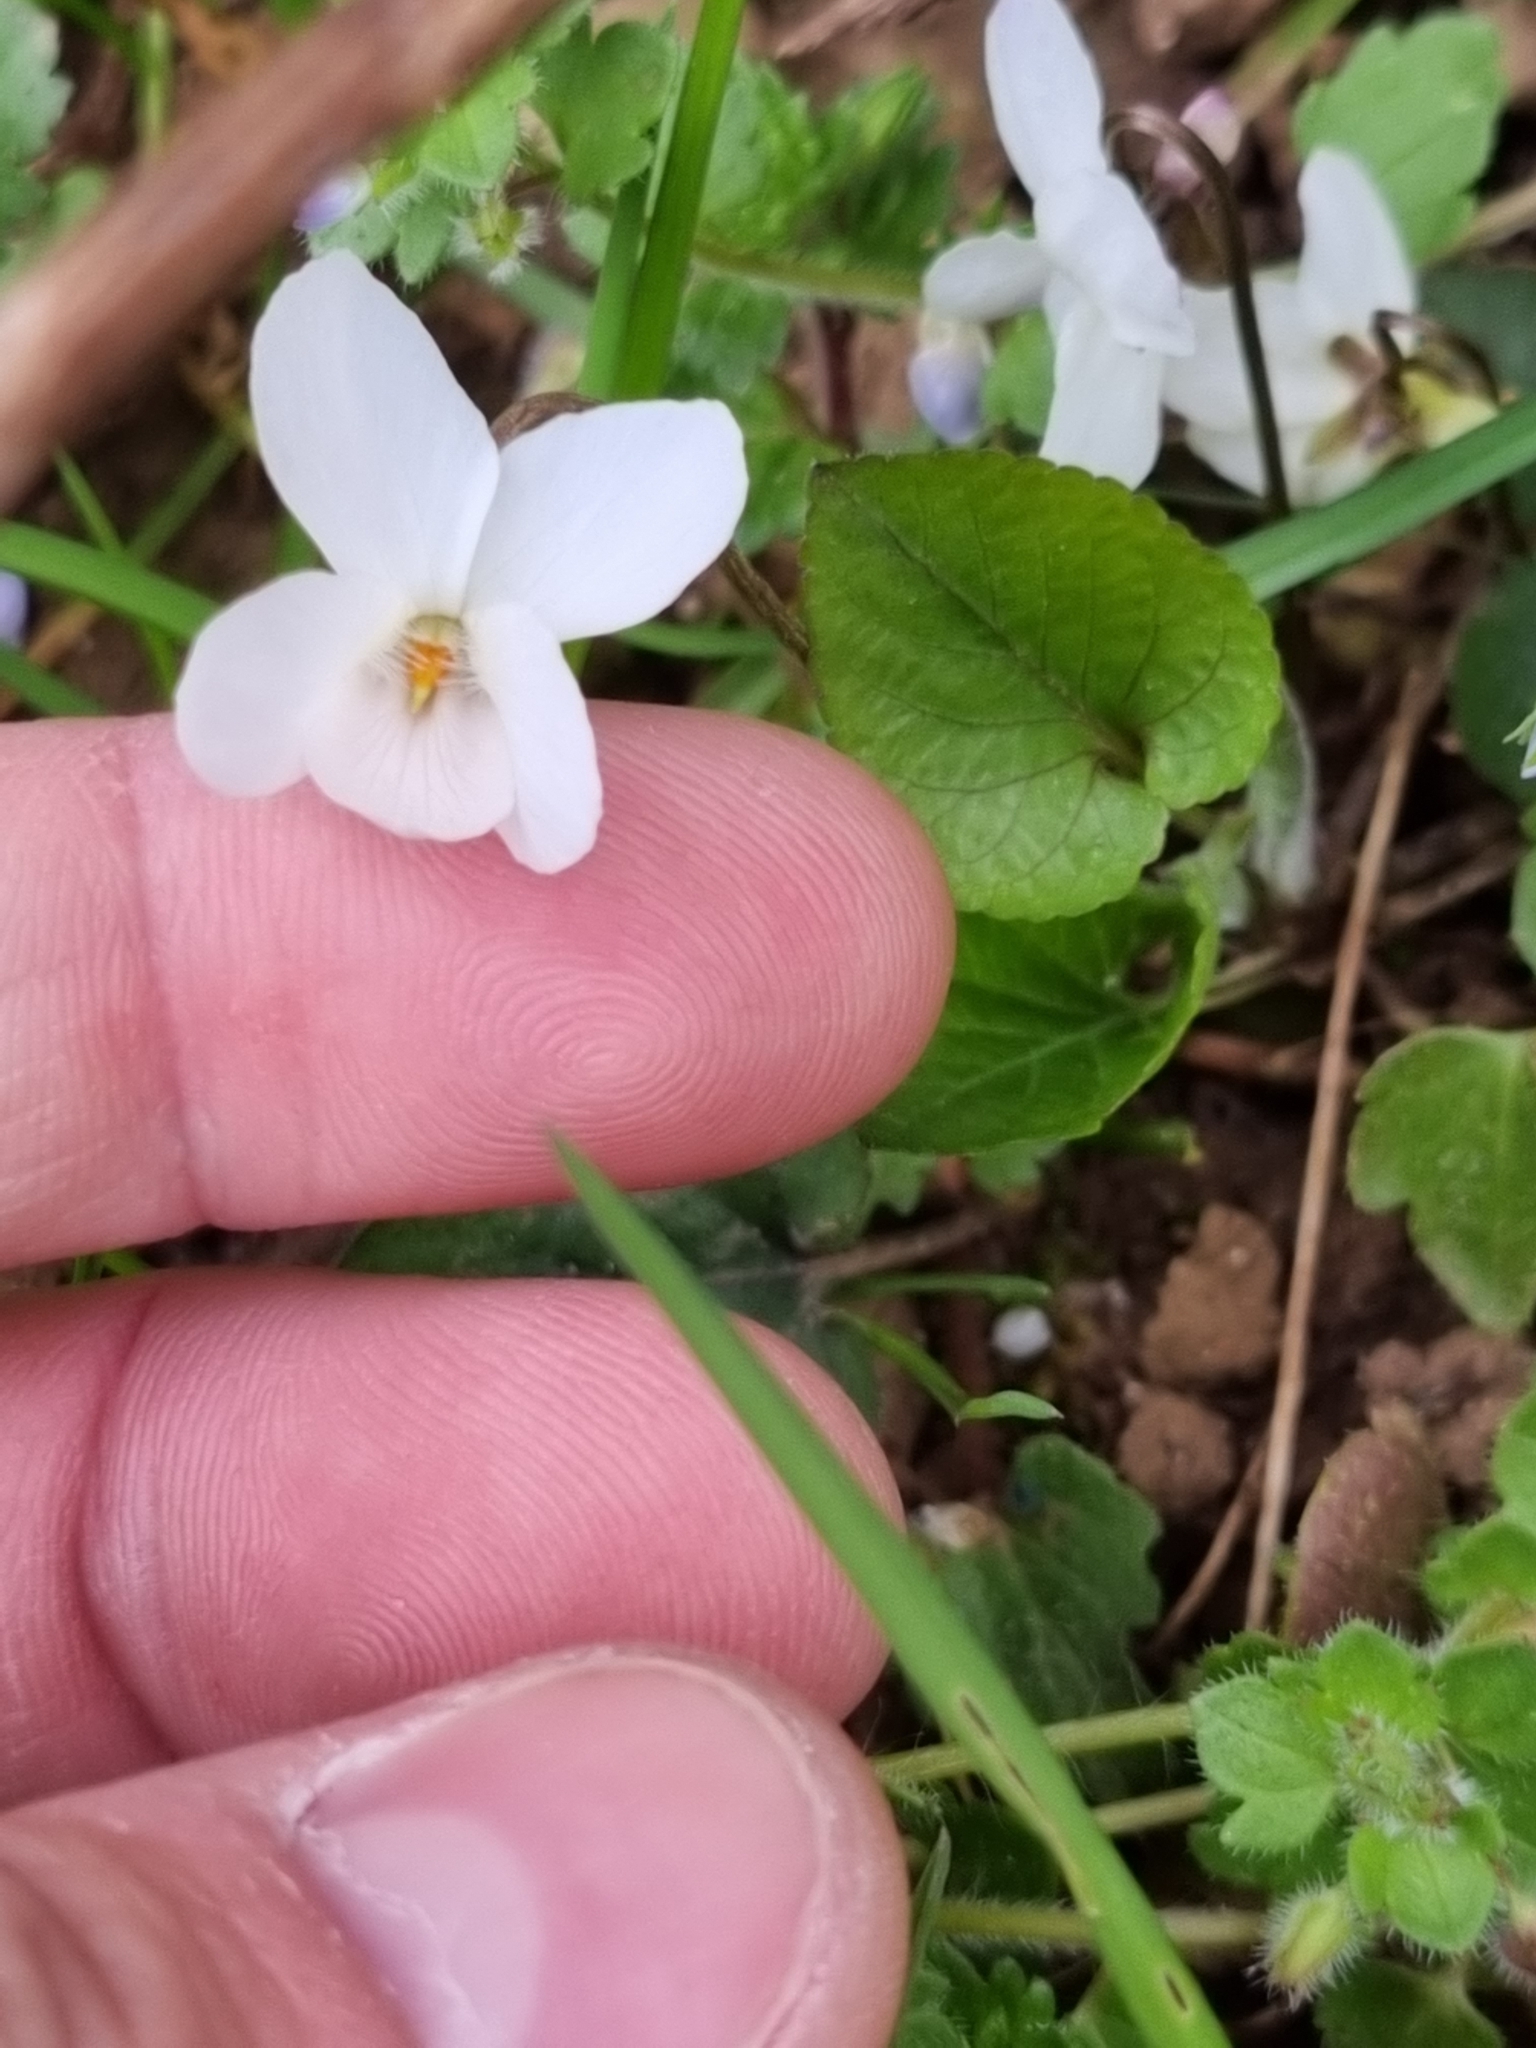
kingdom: Plantae
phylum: Tracheophyta
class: Magnoliopsida
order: Malpighiales
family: Violaceae
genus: Viola
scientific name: Viola alba
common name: White violet
